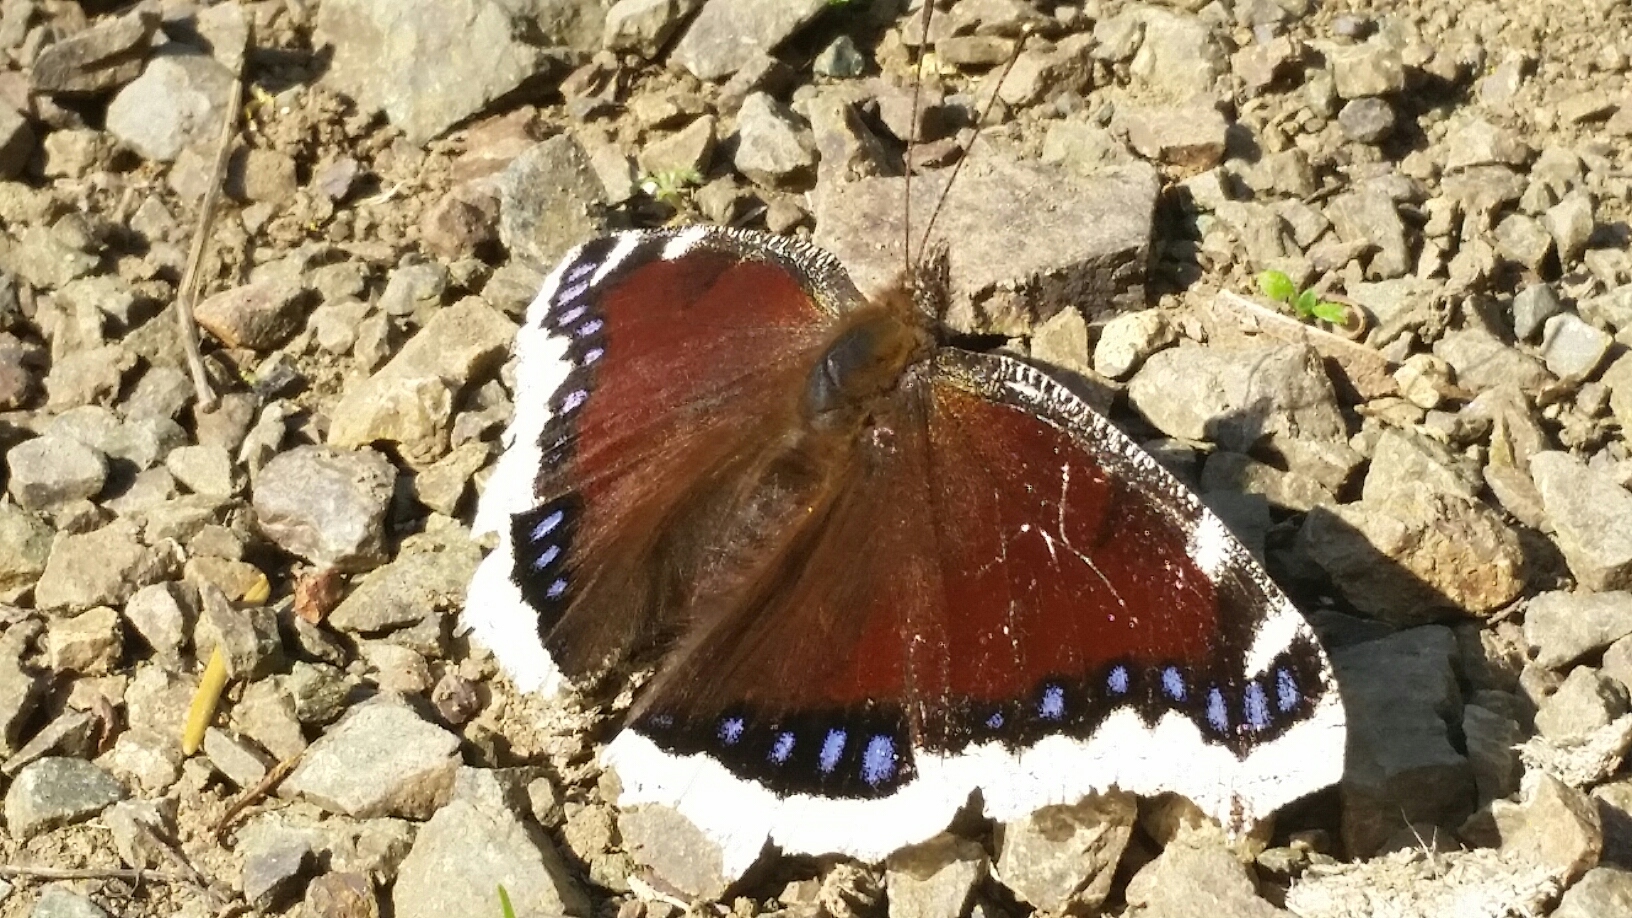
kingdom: Animalia
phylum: Arthropoda
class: Insecta
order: Lepidoptera
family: Nymphalidae
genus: Nymphalis
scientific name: Nymphalis antiopa
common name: Camberwell beauty
